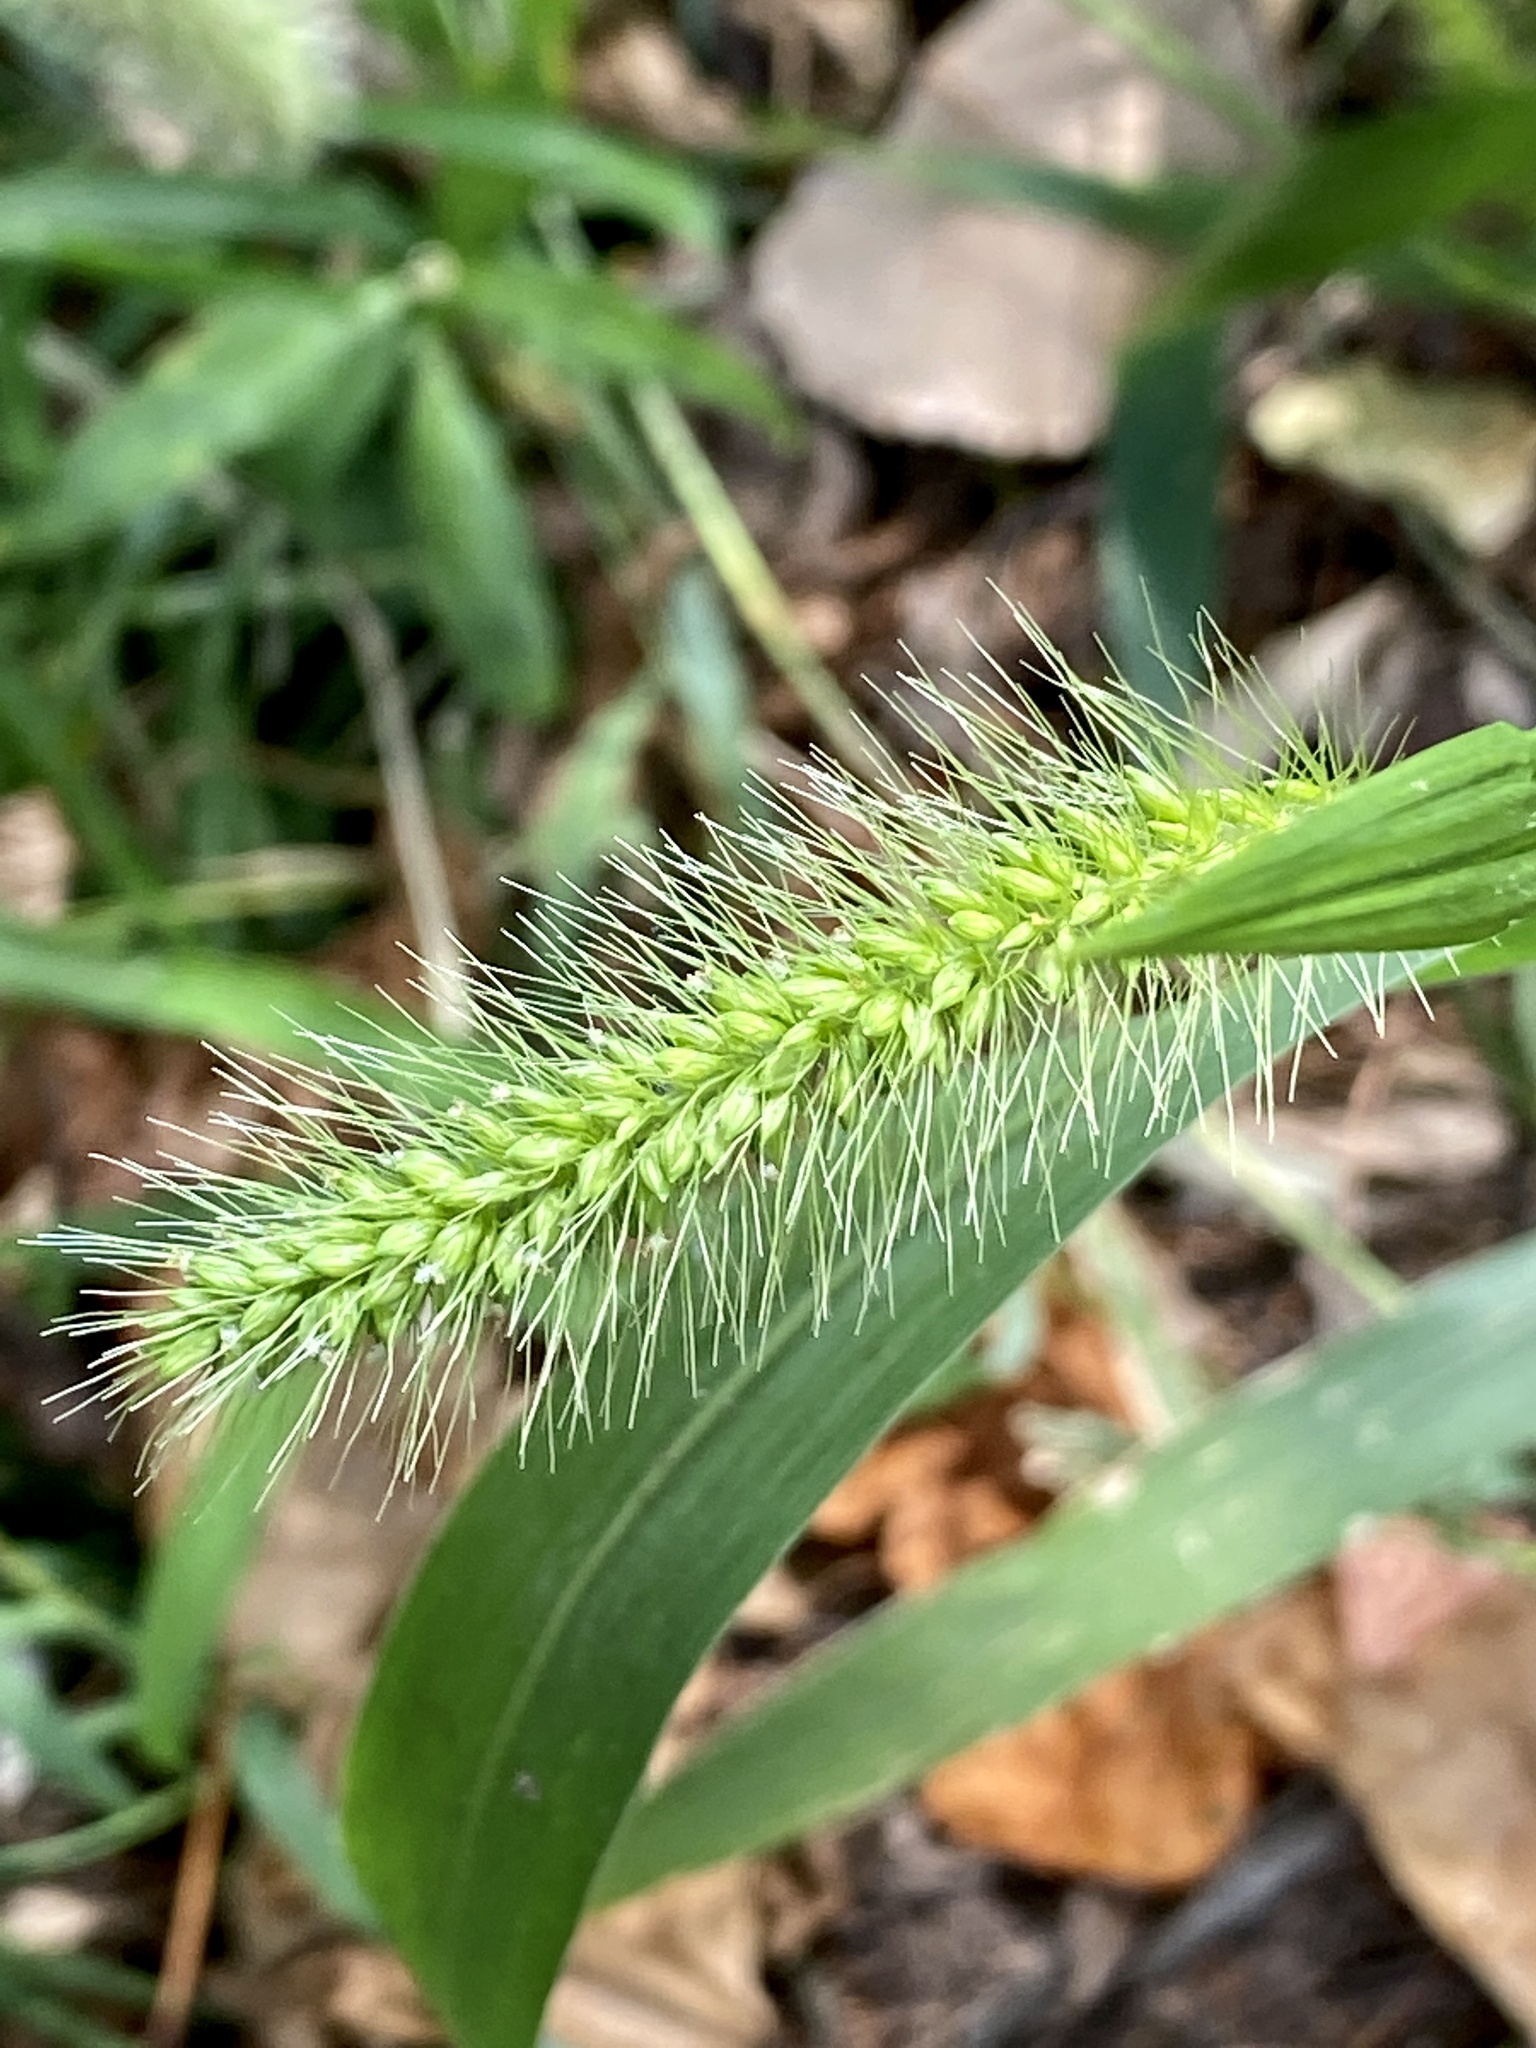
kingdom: Plantae
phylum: Tracheophyta
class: Liliopsida
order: Poales
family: Poaceae
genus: Setaria
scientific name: Setaria faberi
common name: Nodding bristle-grass
